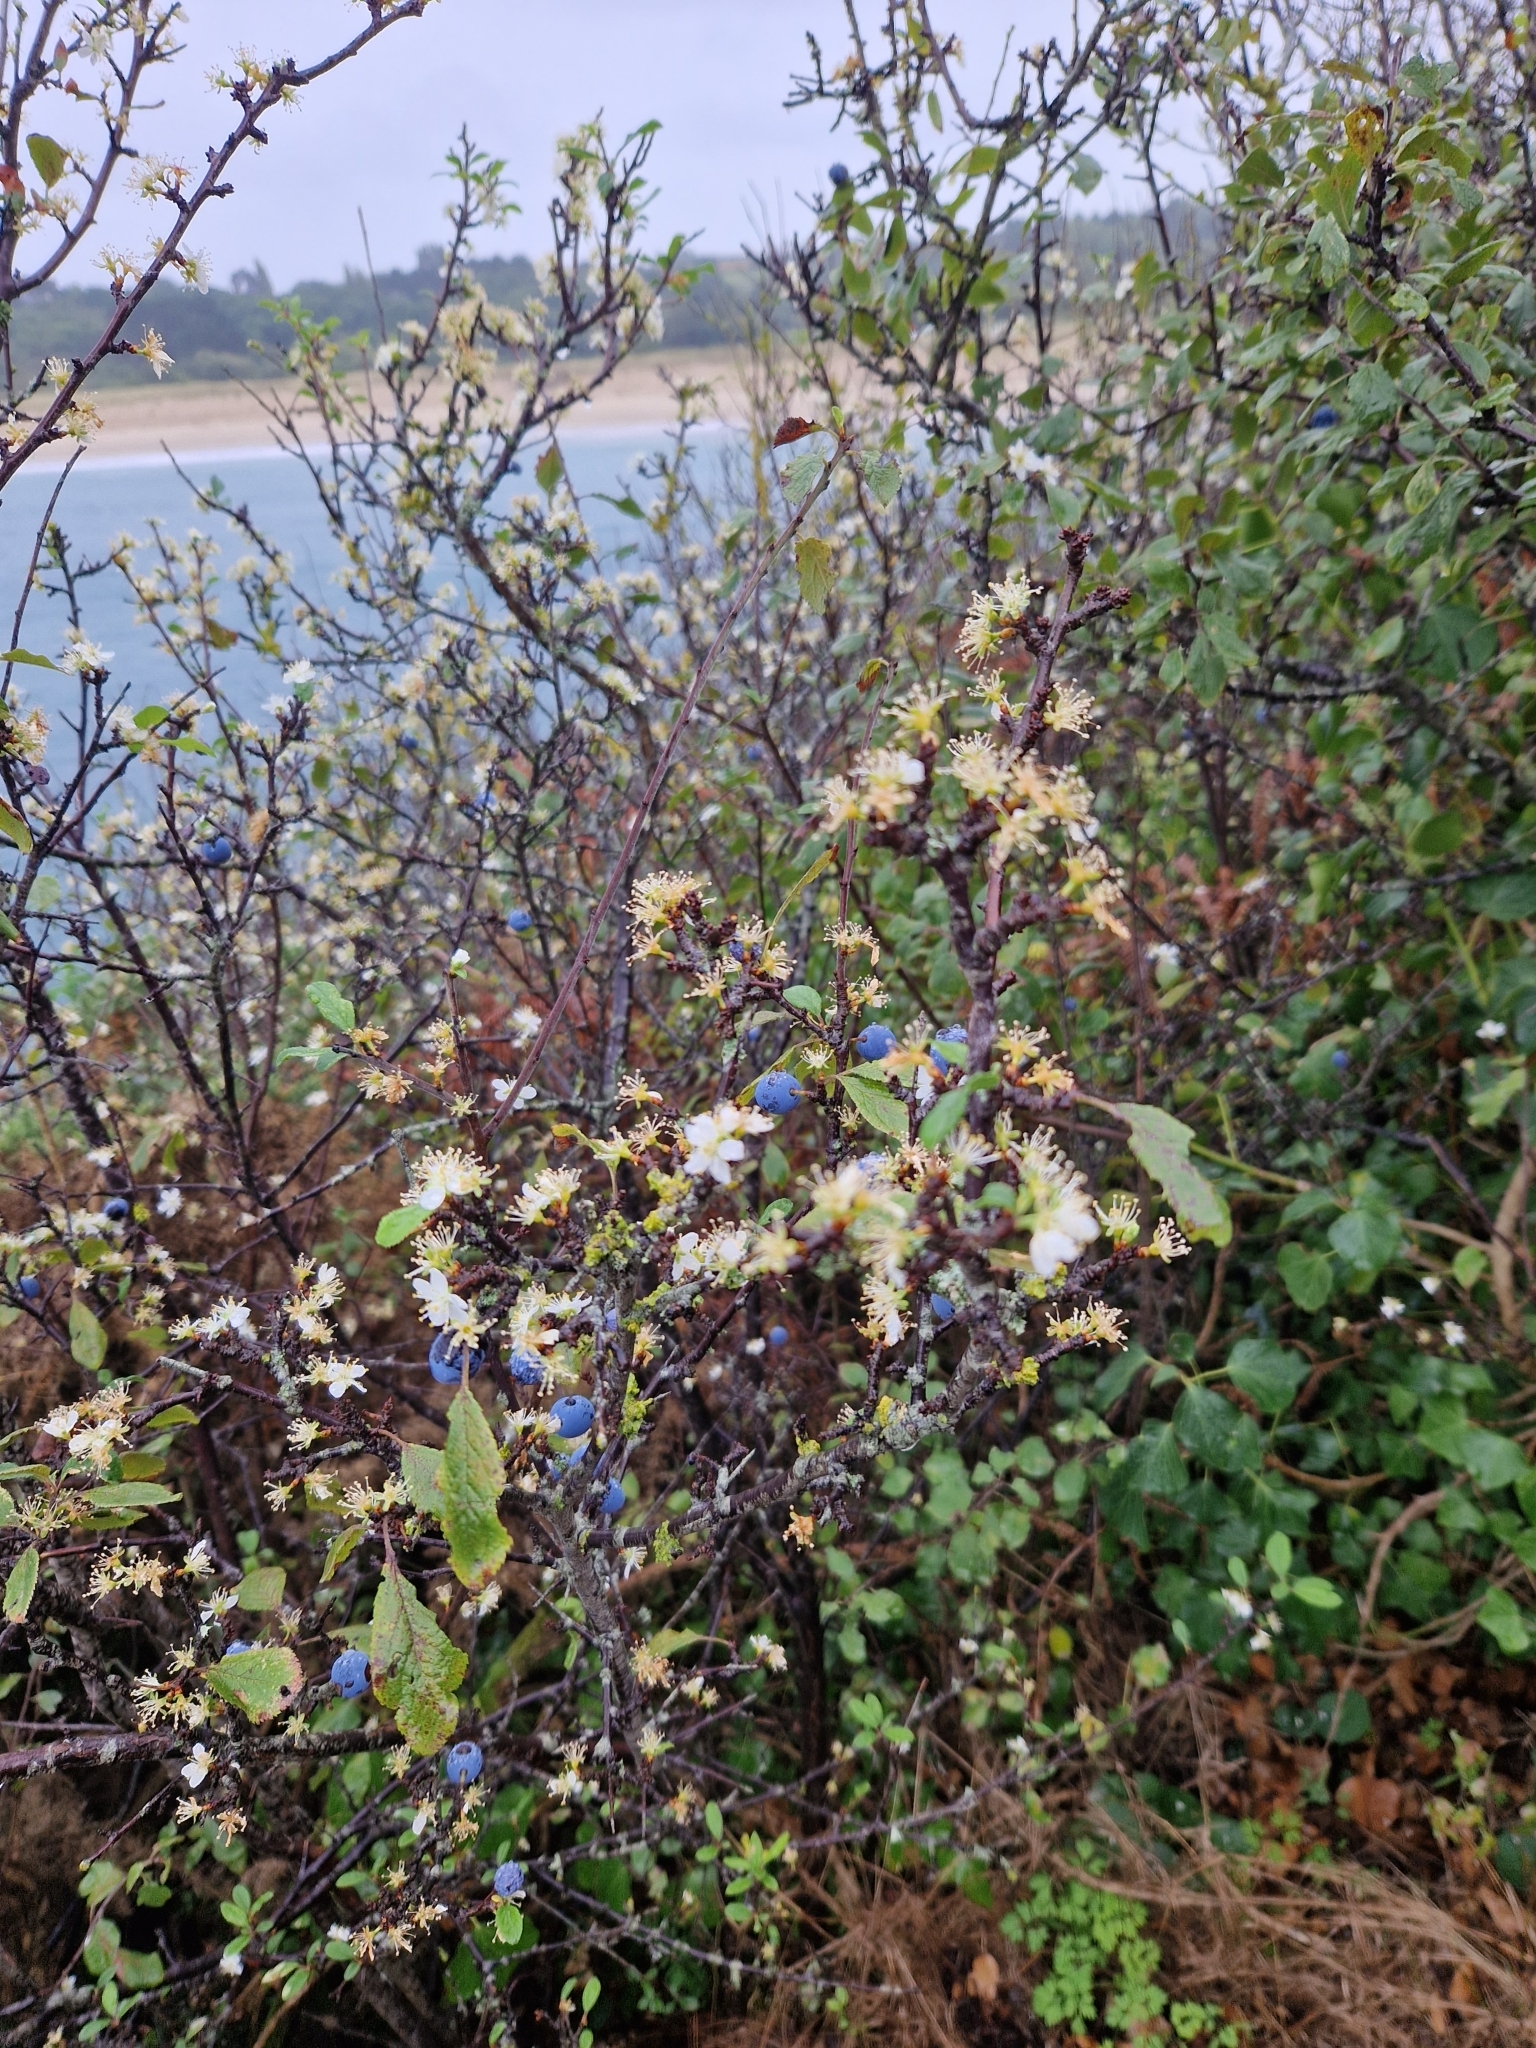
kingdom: Plantae
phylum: Tracheophyta
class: Magnoliopsida
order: Rosales
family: Rosaceae
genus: Prunus
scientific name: Prunus spinosa
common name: Blackthorn
